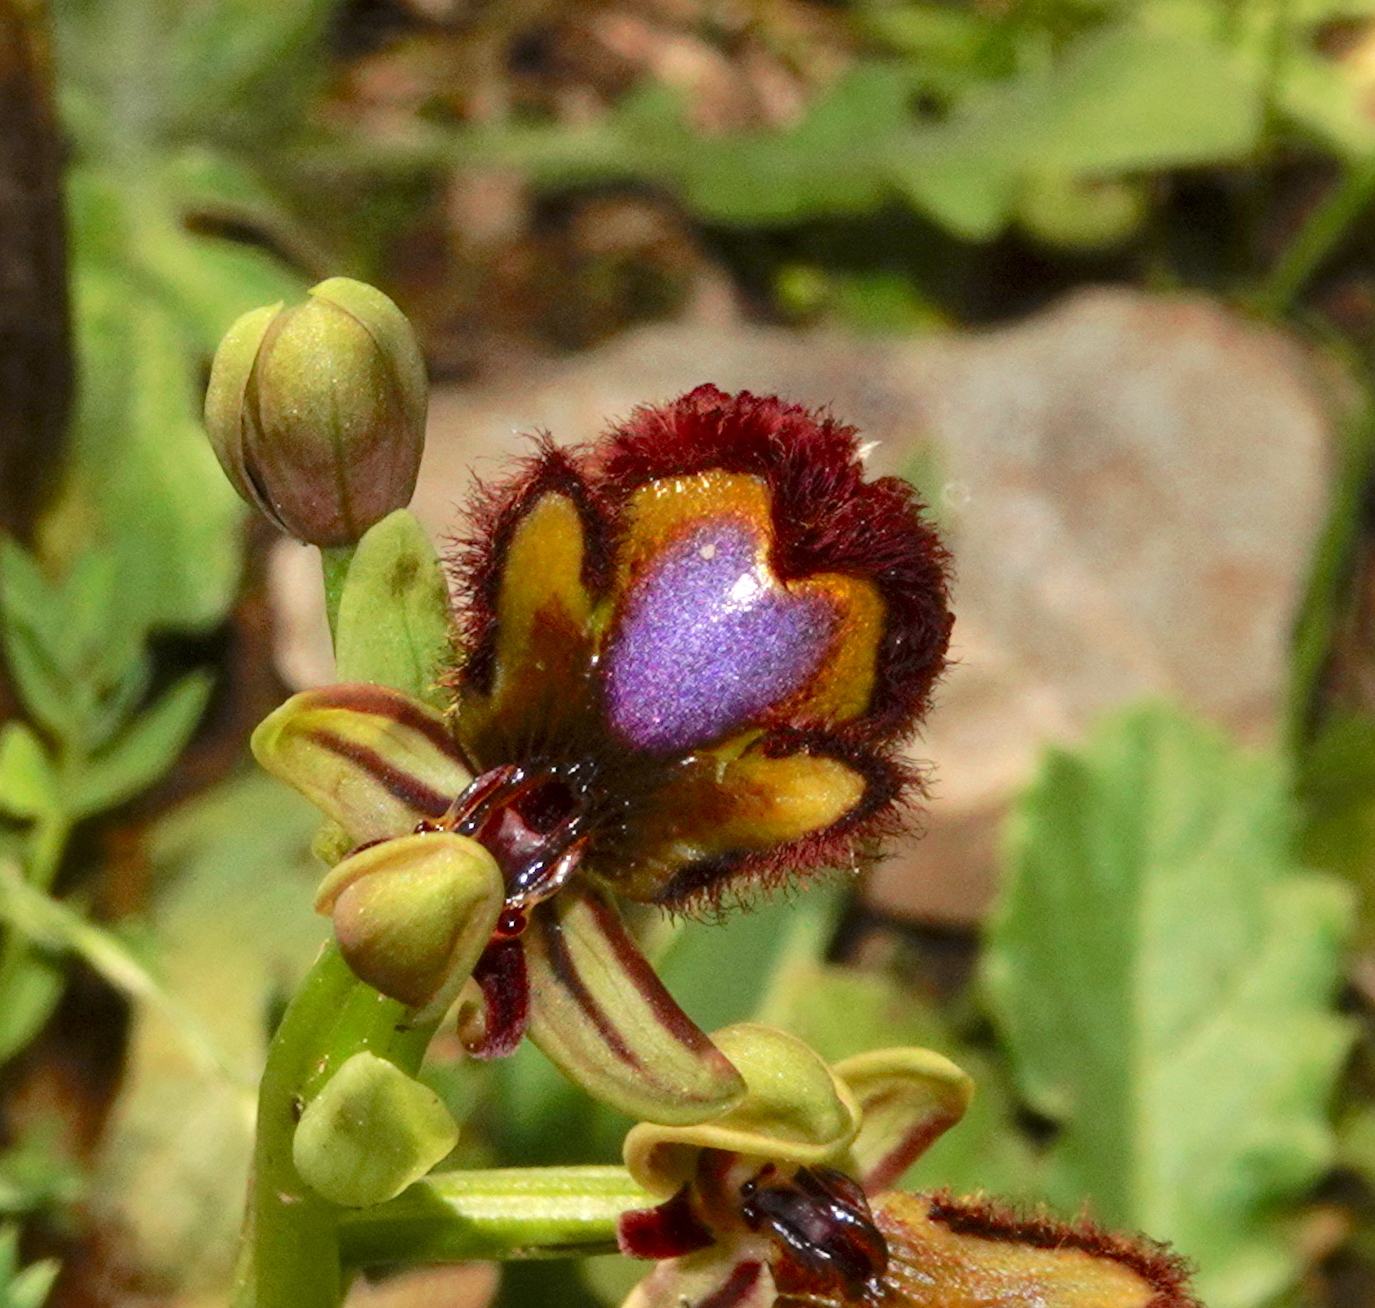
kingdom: Plantae
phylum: Tracheophyta
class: Liliopsida
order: Asparagales
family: Orchidaceae
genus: Ophrys
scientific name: Ophrys speculum
